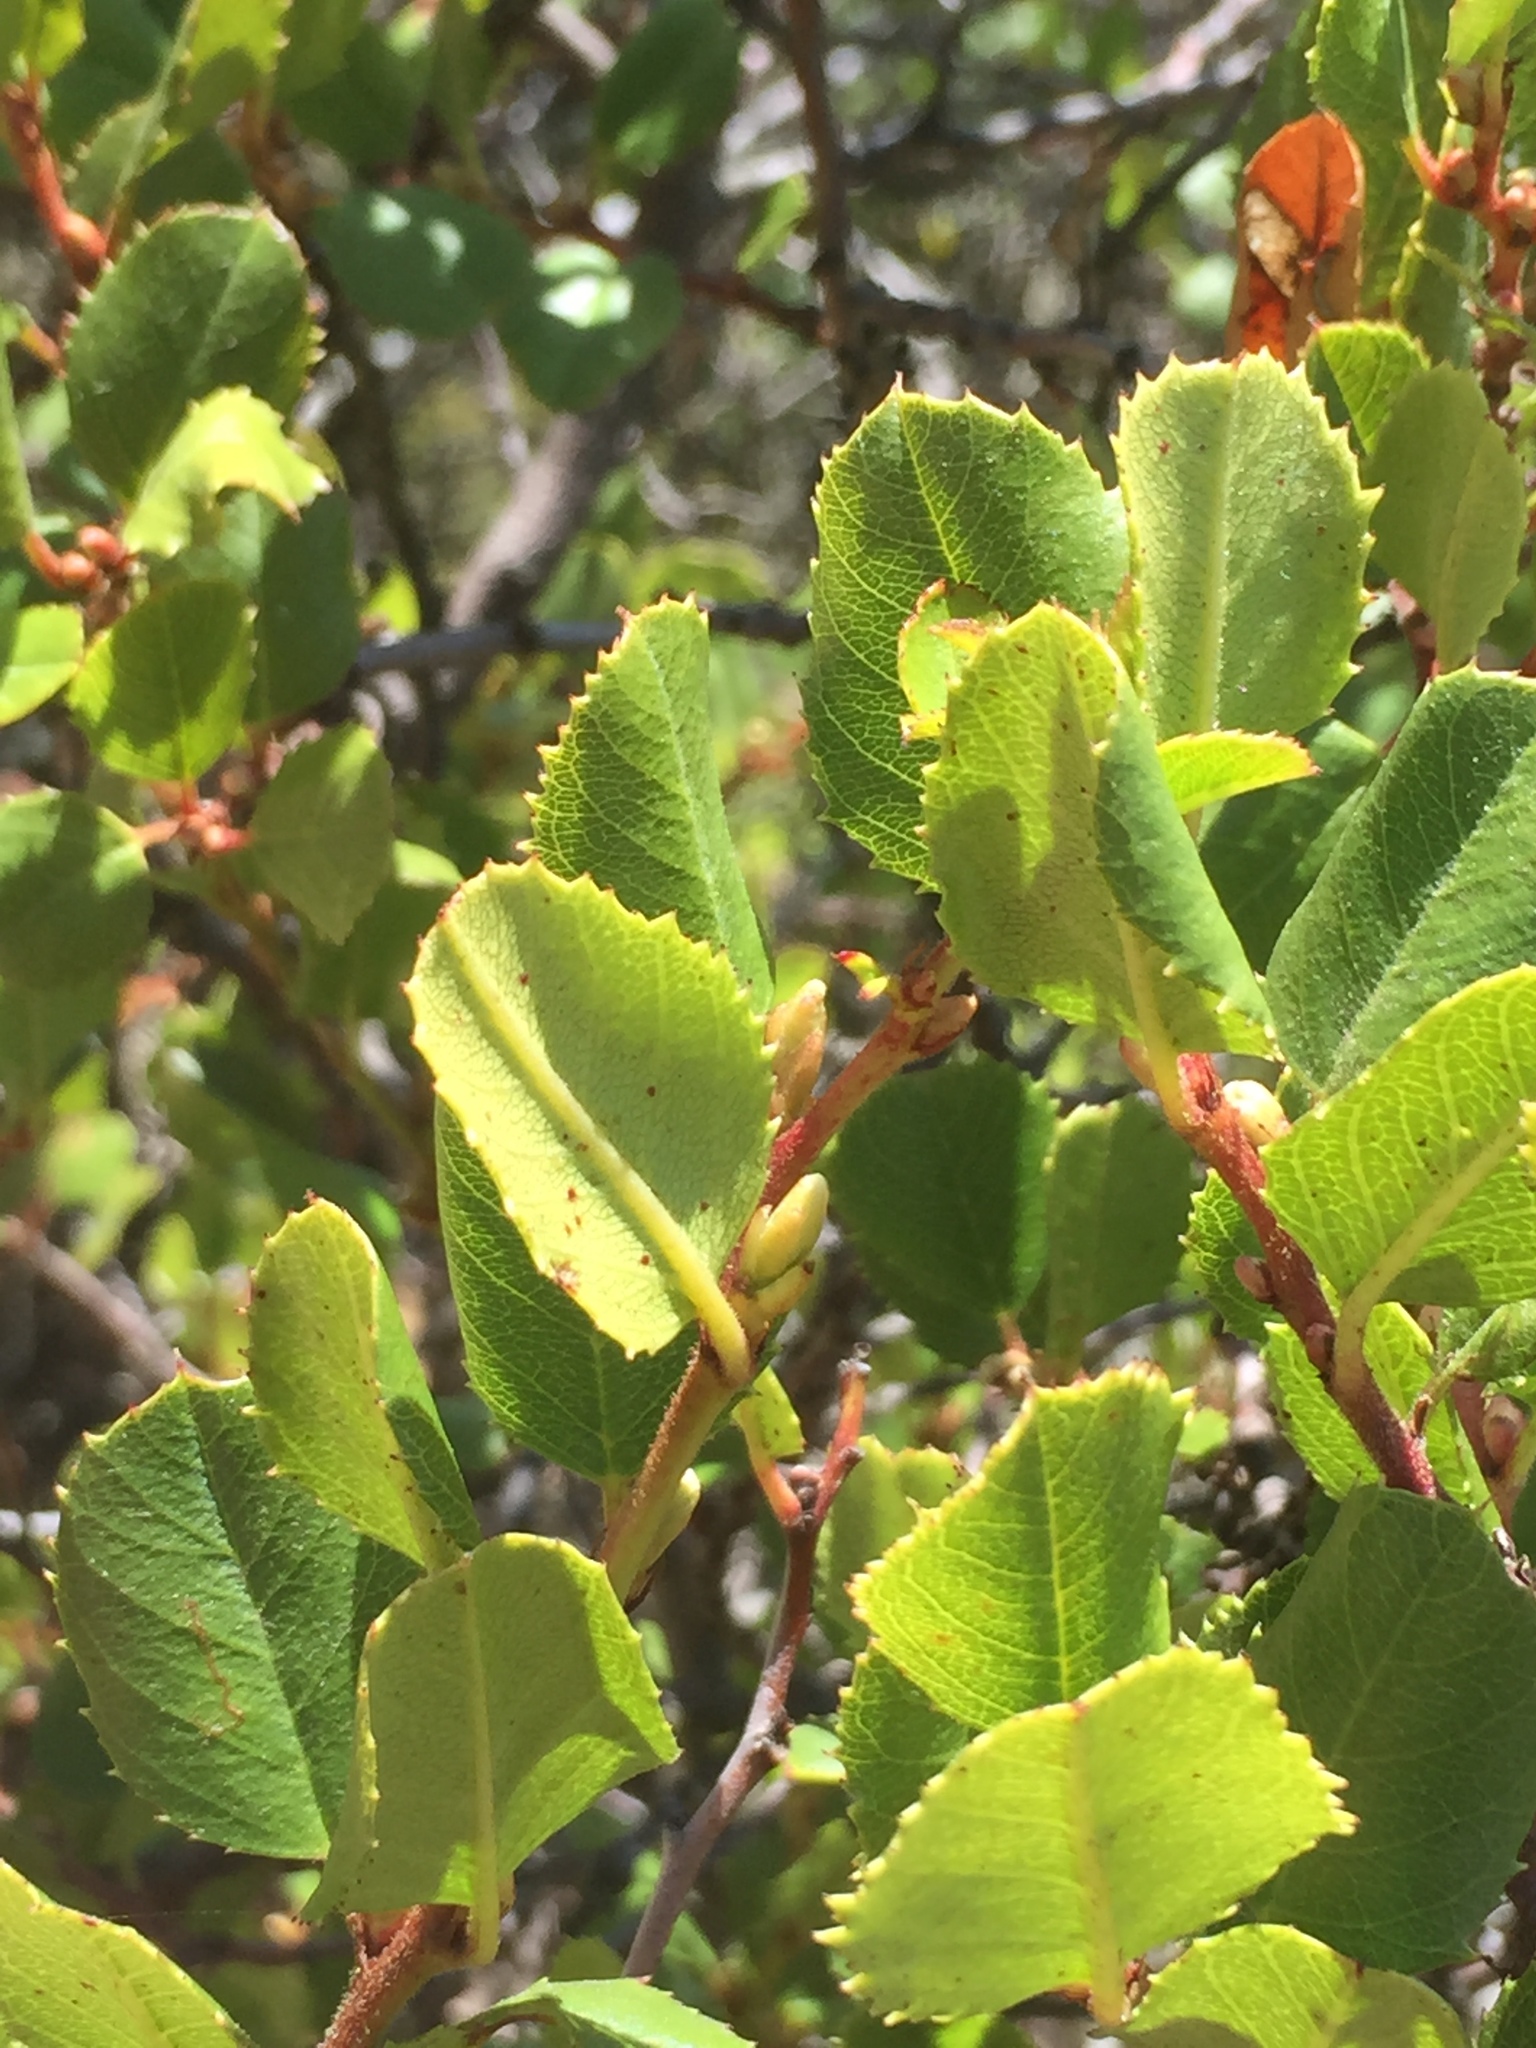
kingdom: Plantae
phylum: Tracheophyta
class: Magnoliopsida
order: Rosales
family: Rhamnaceae
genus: Endotropis
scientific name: Endotropis crocea
